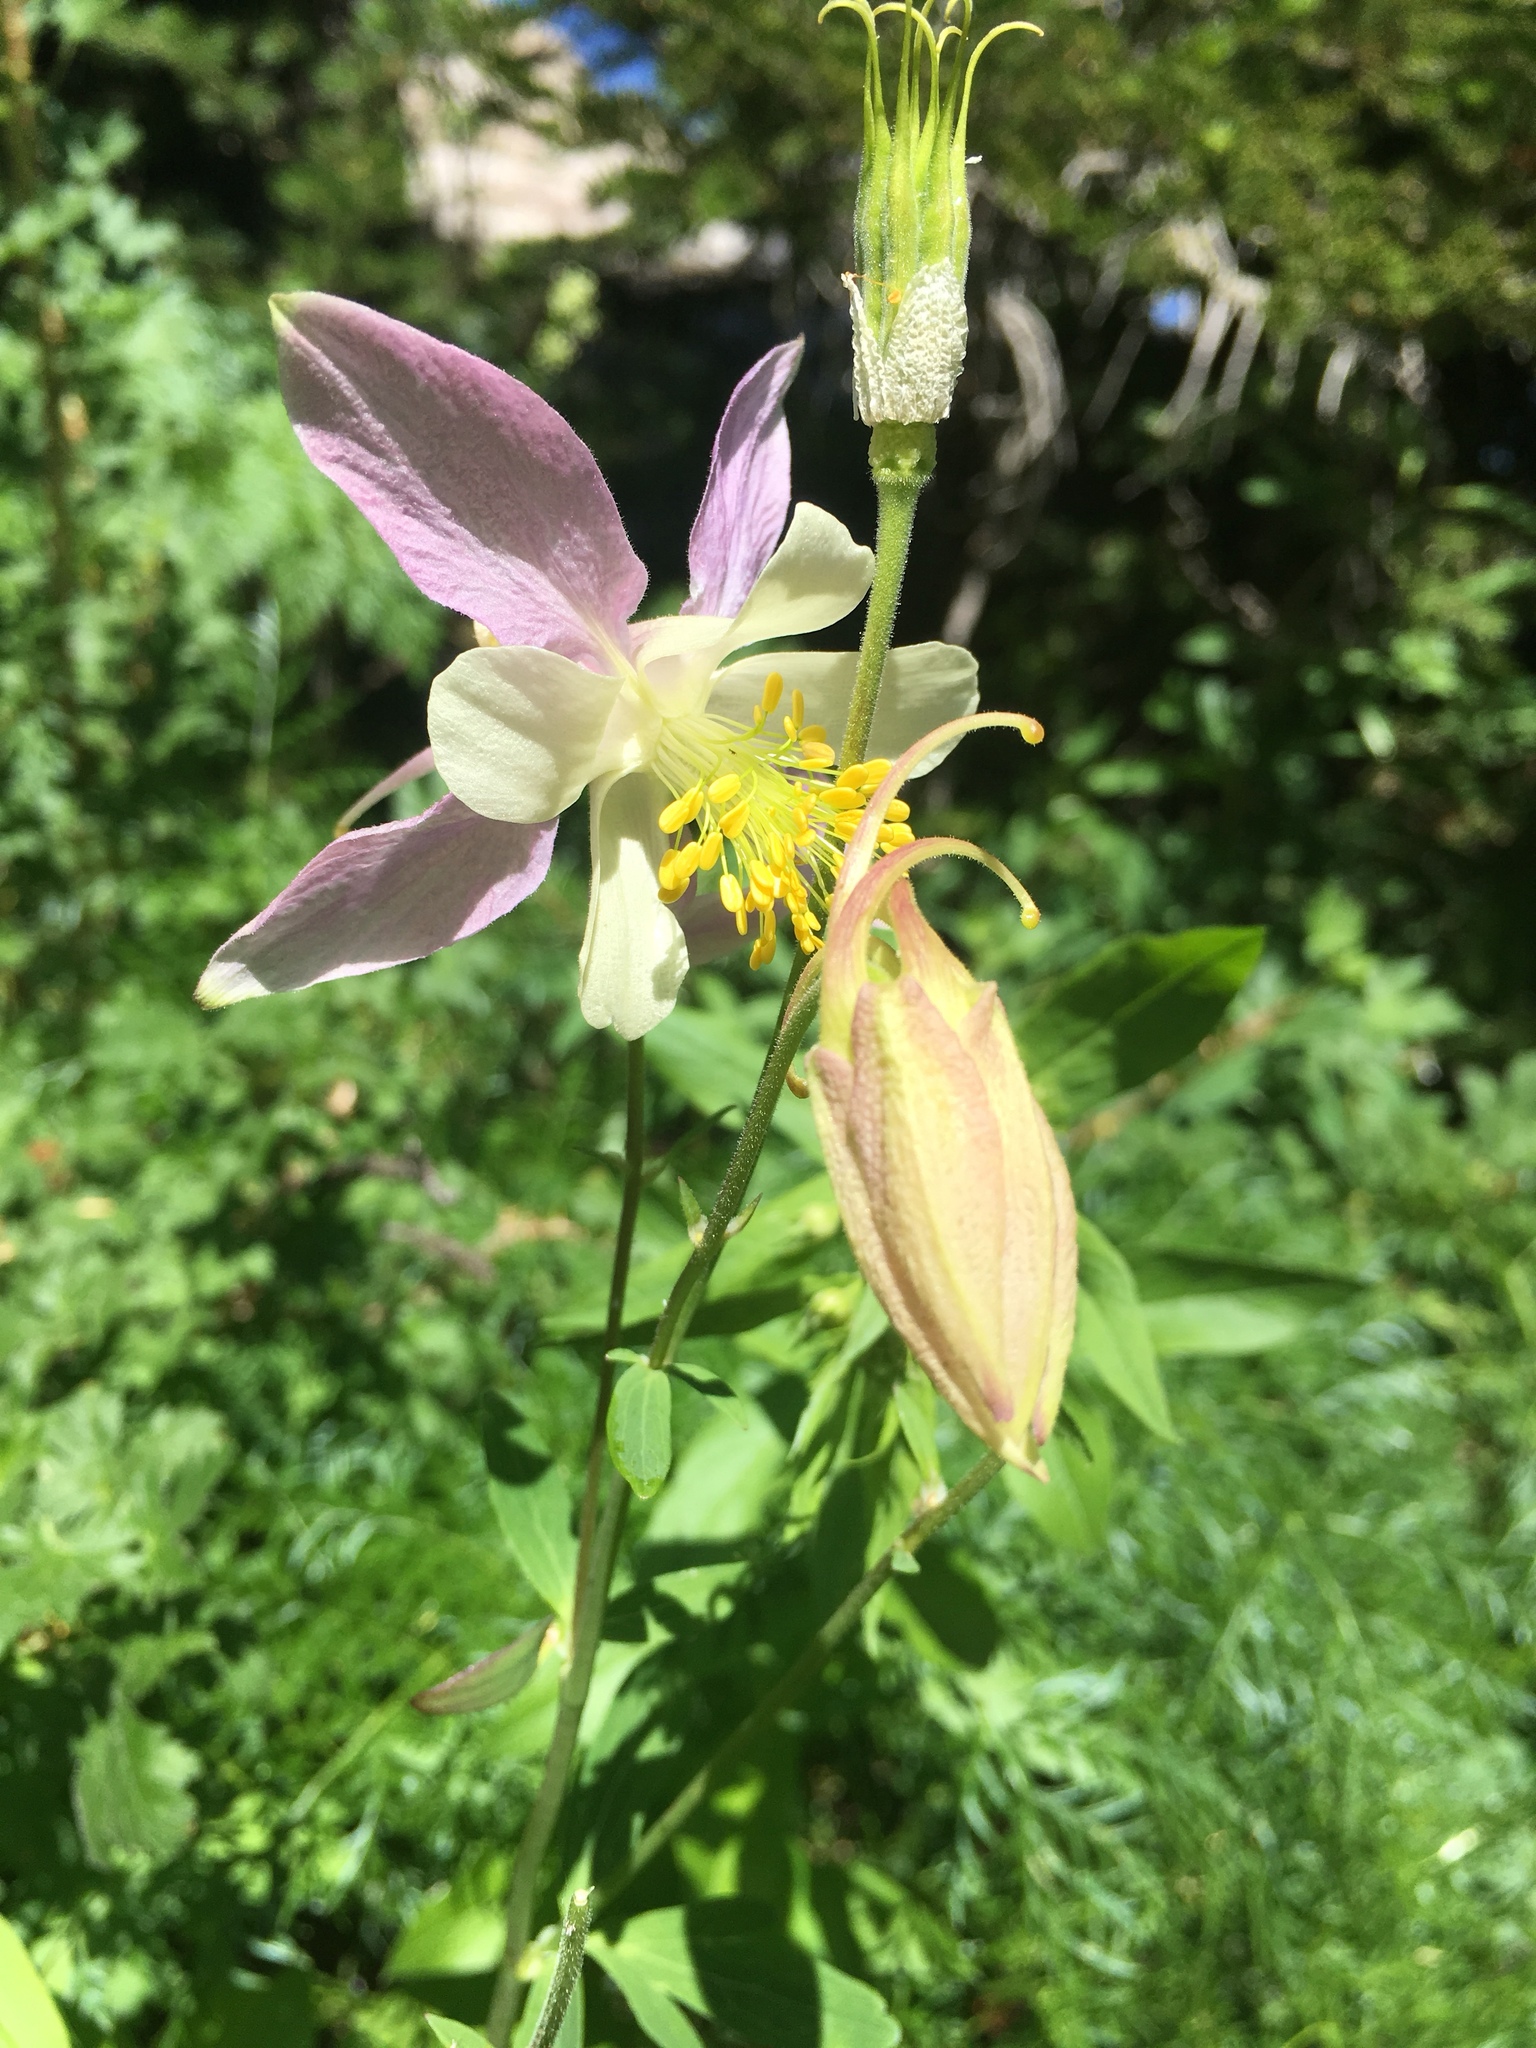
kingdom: Plantae
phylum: Tracheophyta
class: Magnoliopsida
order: Ranunculales
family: Ranunculaceae
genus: Aquilegia
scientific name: Aquilegia coerulea
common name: Rocky mountain columbine
